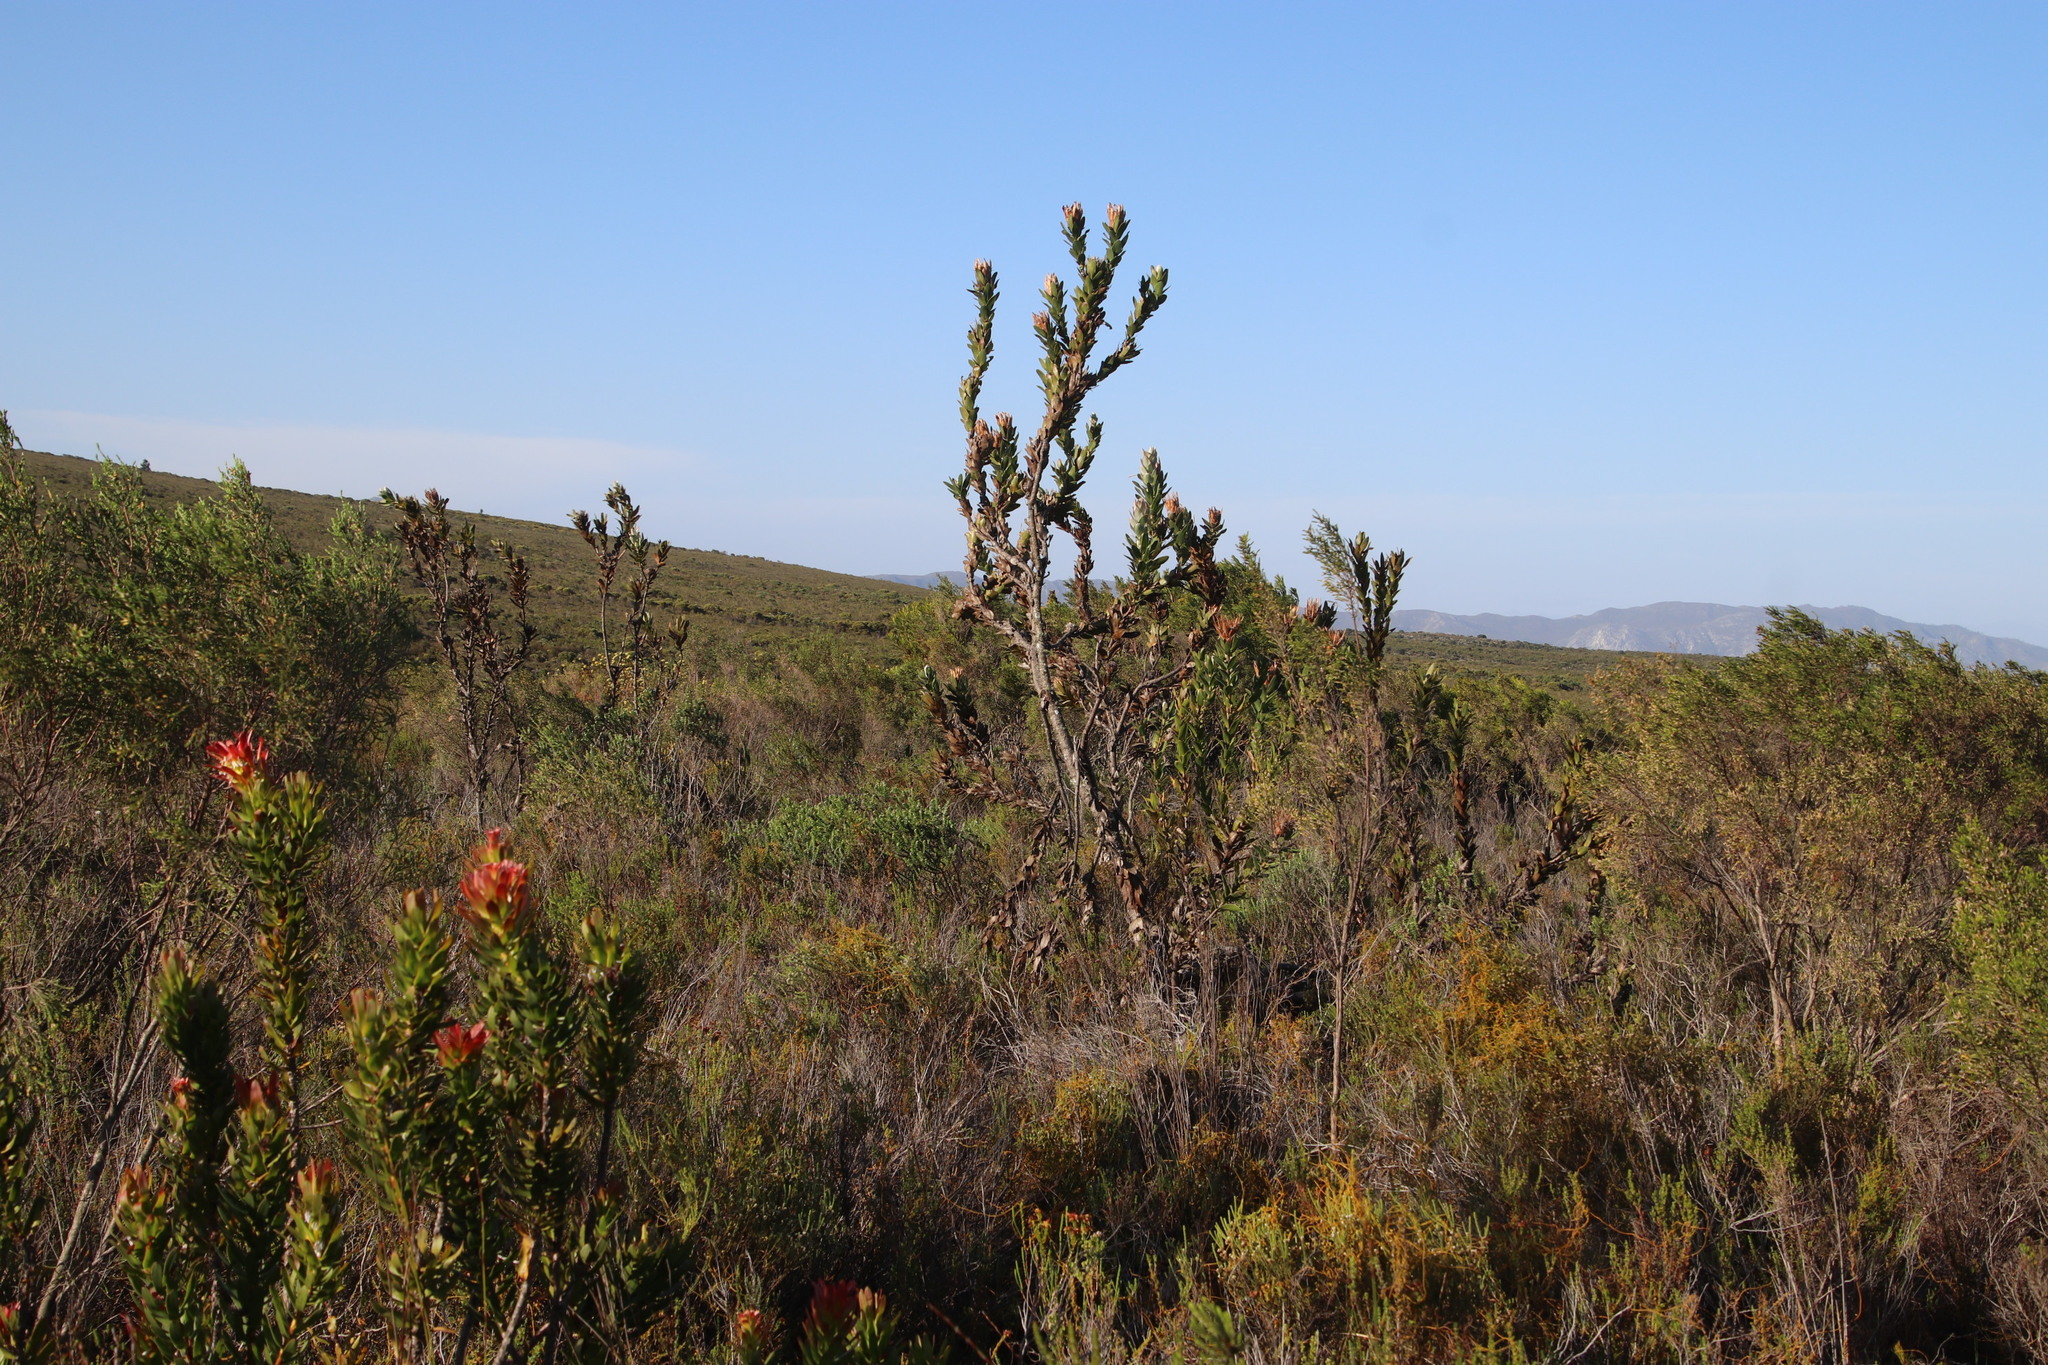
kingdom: Plantae
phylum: Tracheophyta
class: Magnoliopsida
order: Proteales
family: Proteaceae
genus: Protea
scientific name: Protea compacta
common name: Bot river protea
